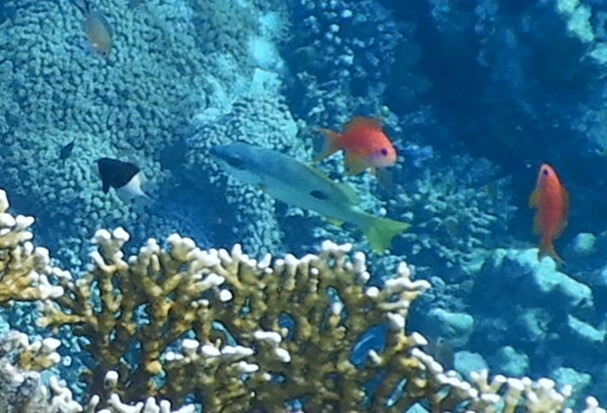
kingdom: Animalia
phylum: Chordata
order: Perciformes
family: Serranidae
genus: Pseudanthias
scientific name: Pseudanthias squamipinnis
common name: Scalefin anthias
